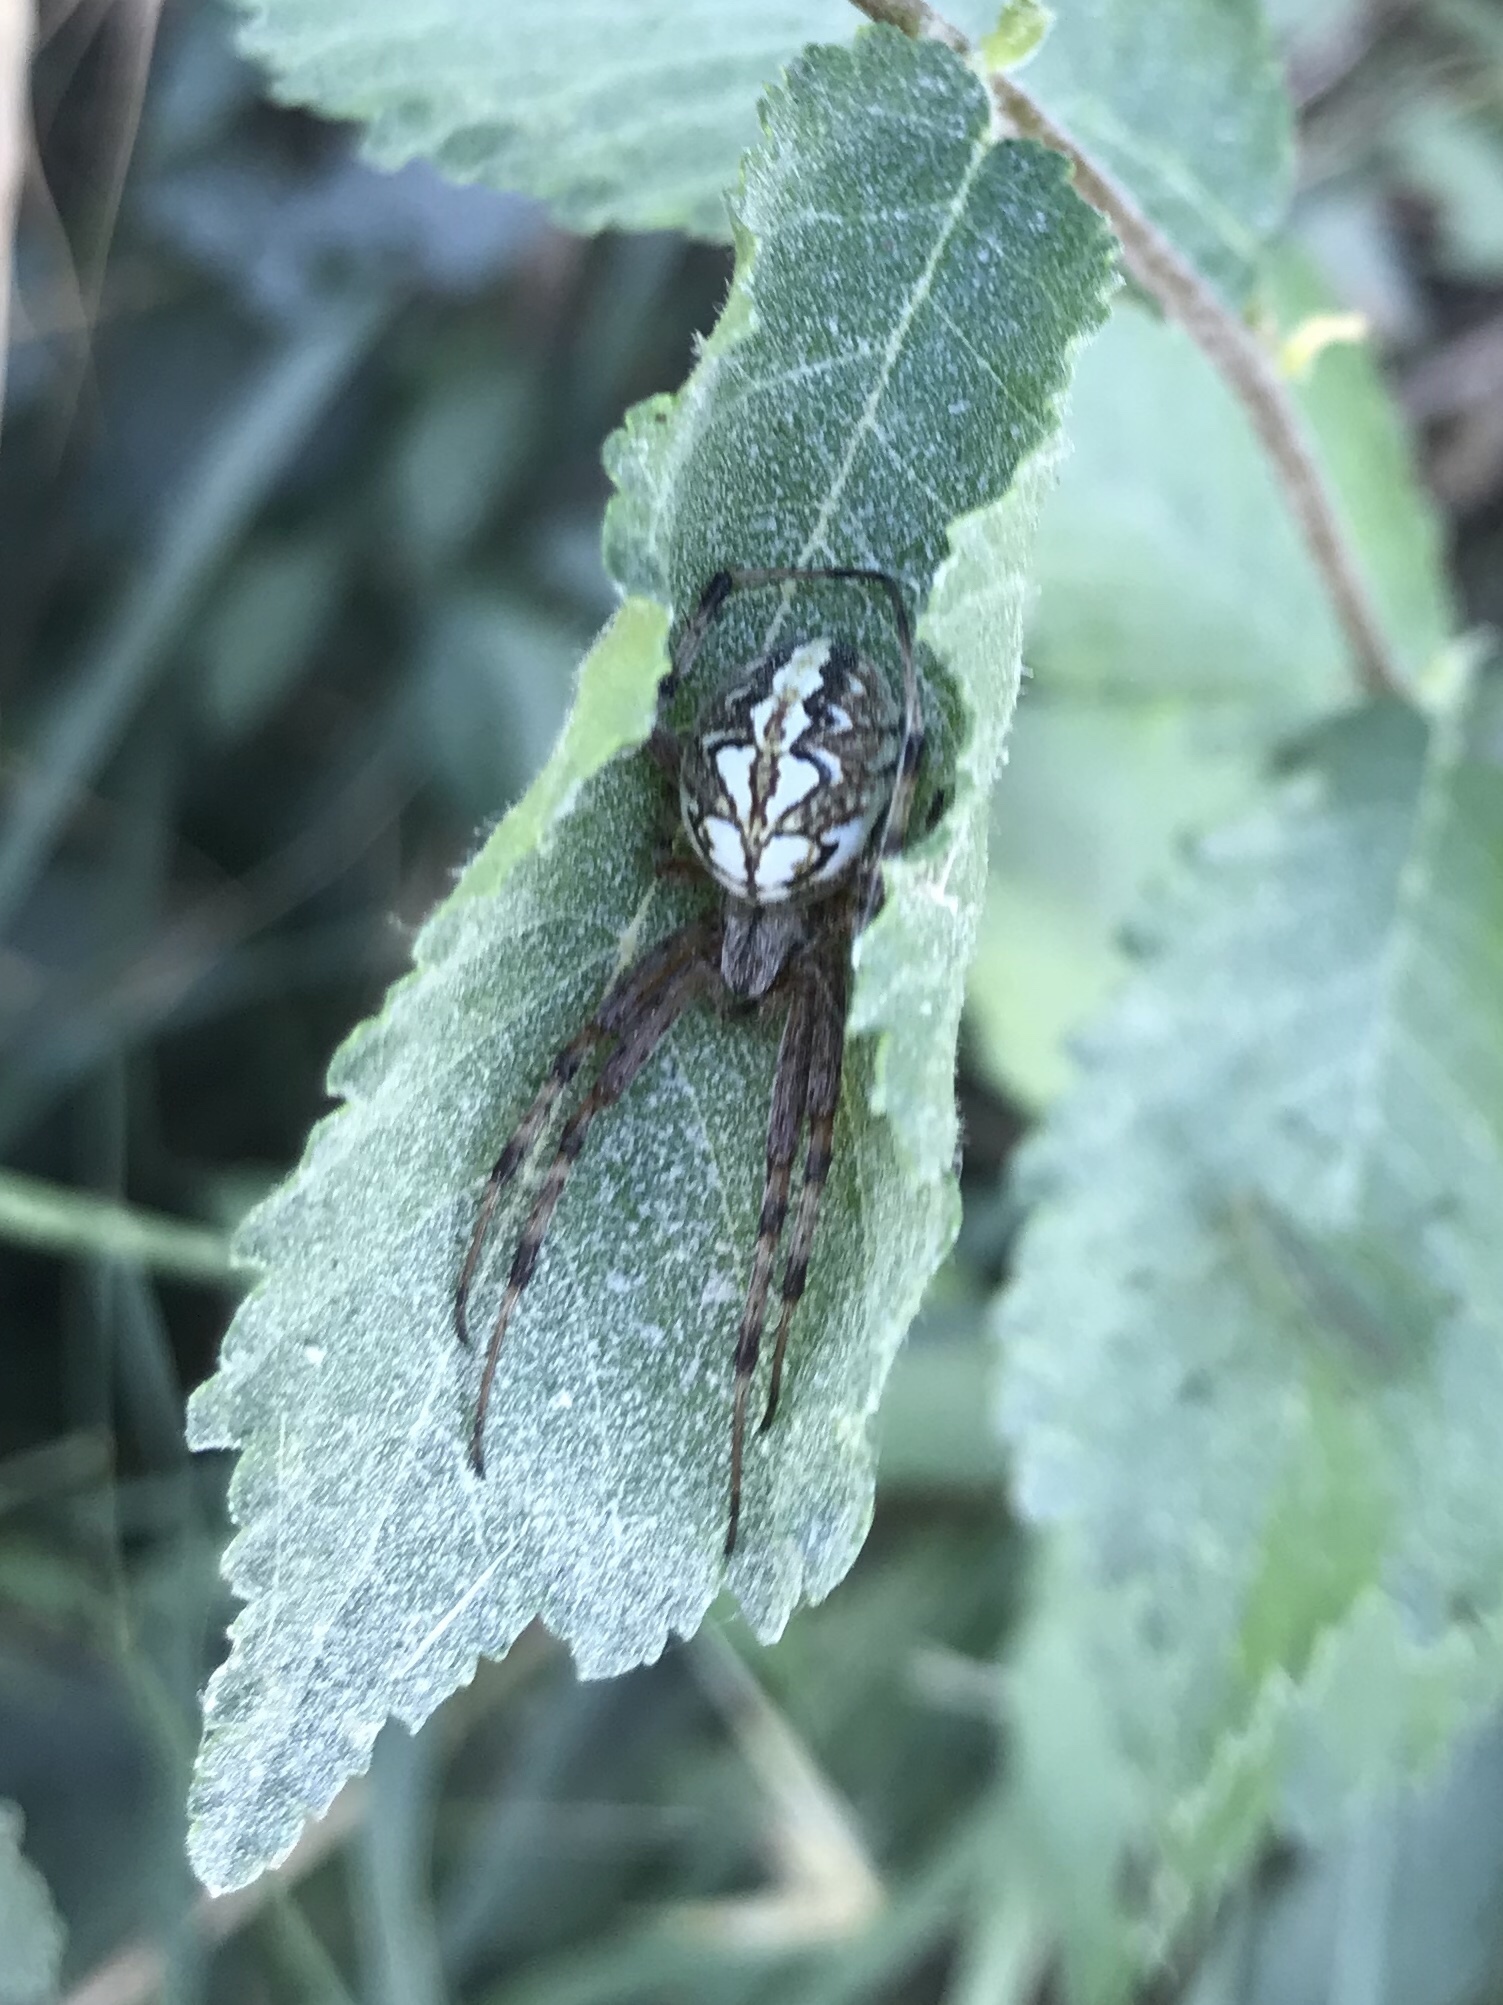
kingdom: Animalia
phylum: Arthropoda
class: Arachnida
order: Araneae
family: Araneidae
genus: Neoscona
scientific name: Neoscona adianta
